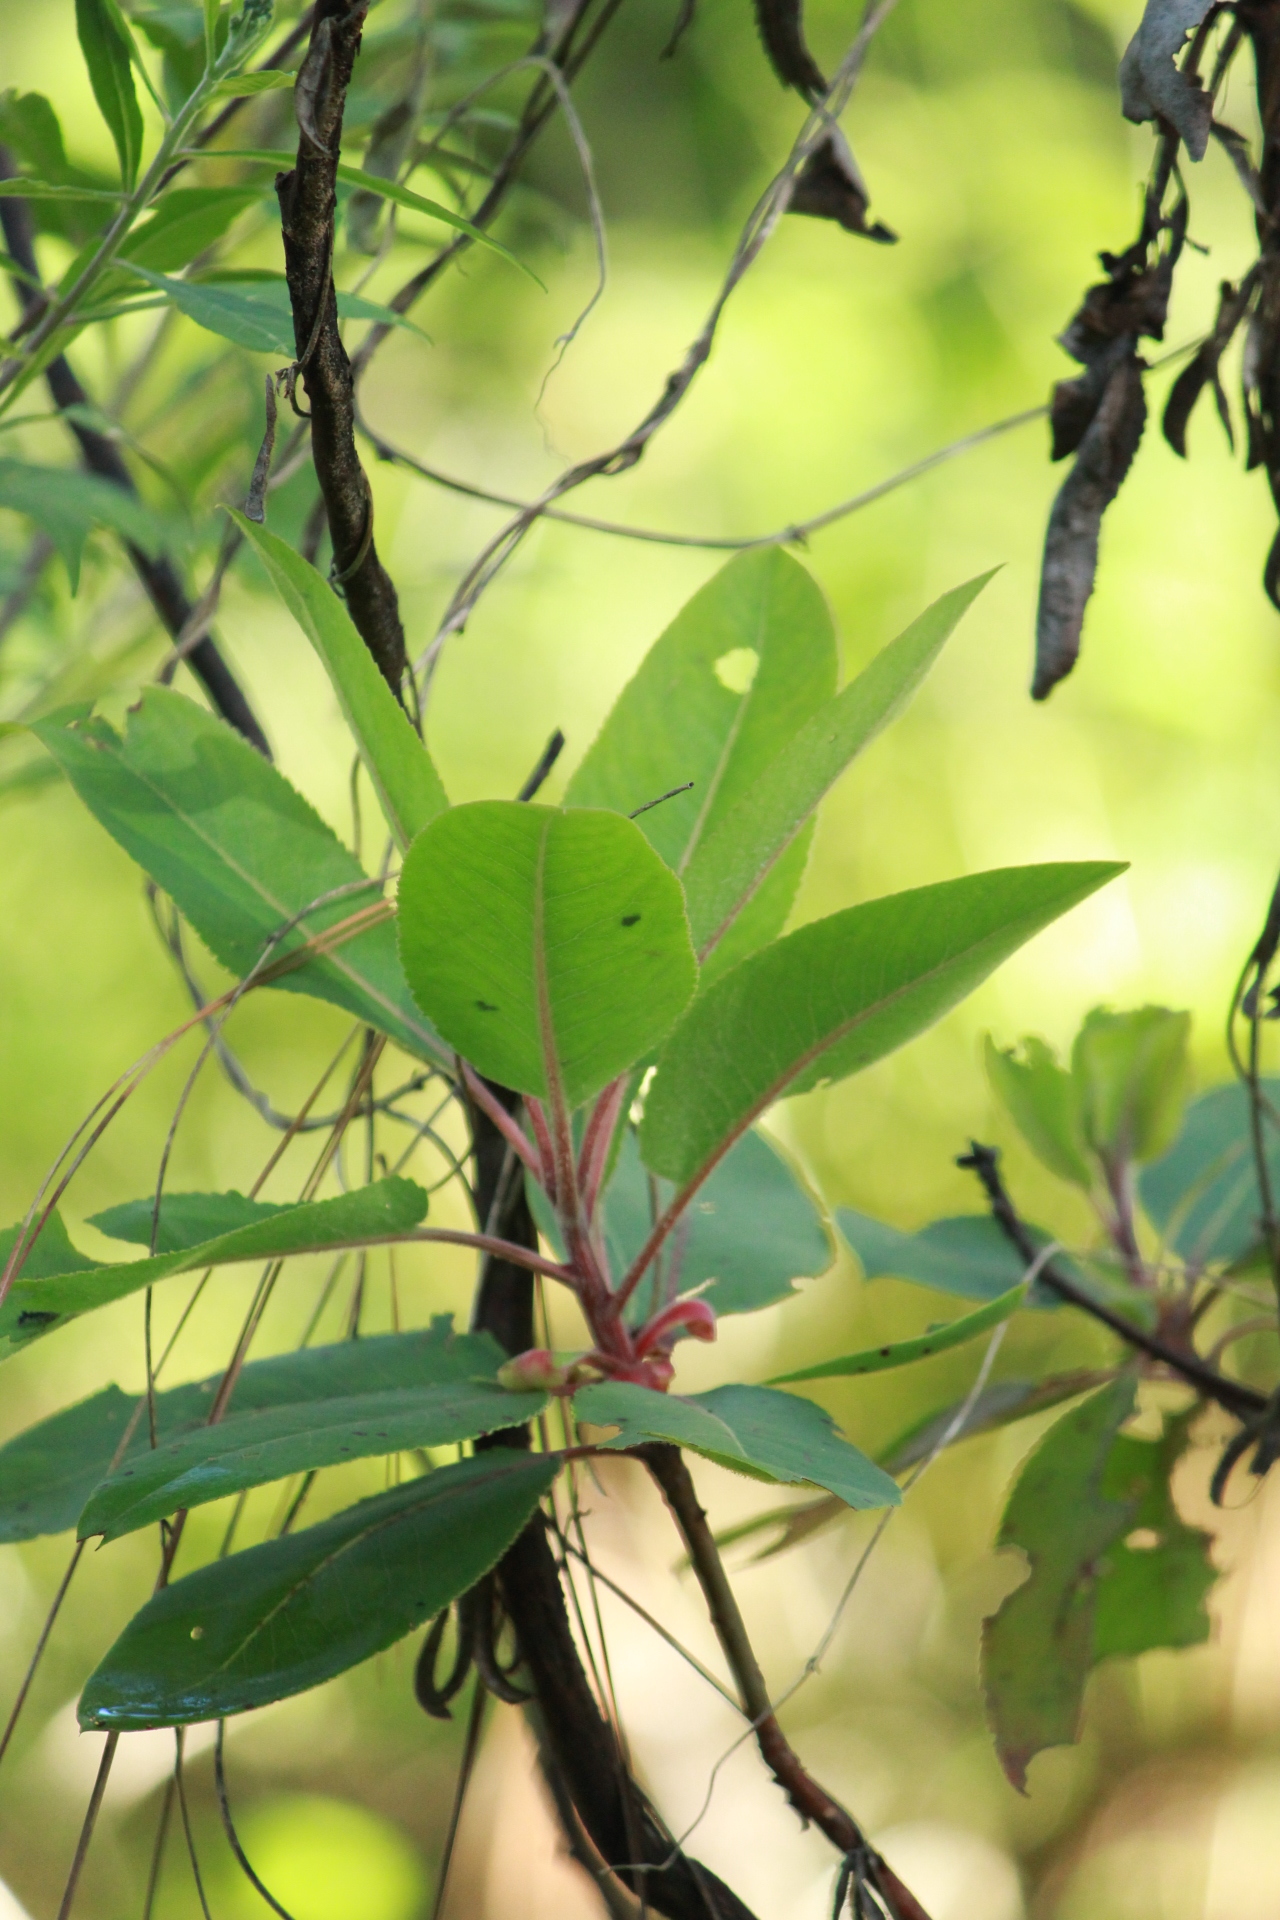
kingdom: Plantae
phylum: Tracheophyta
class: Magnoliopsida
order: Ericales
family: Ericaceae
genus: Arbutus
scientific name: Arbutus xalapensis
